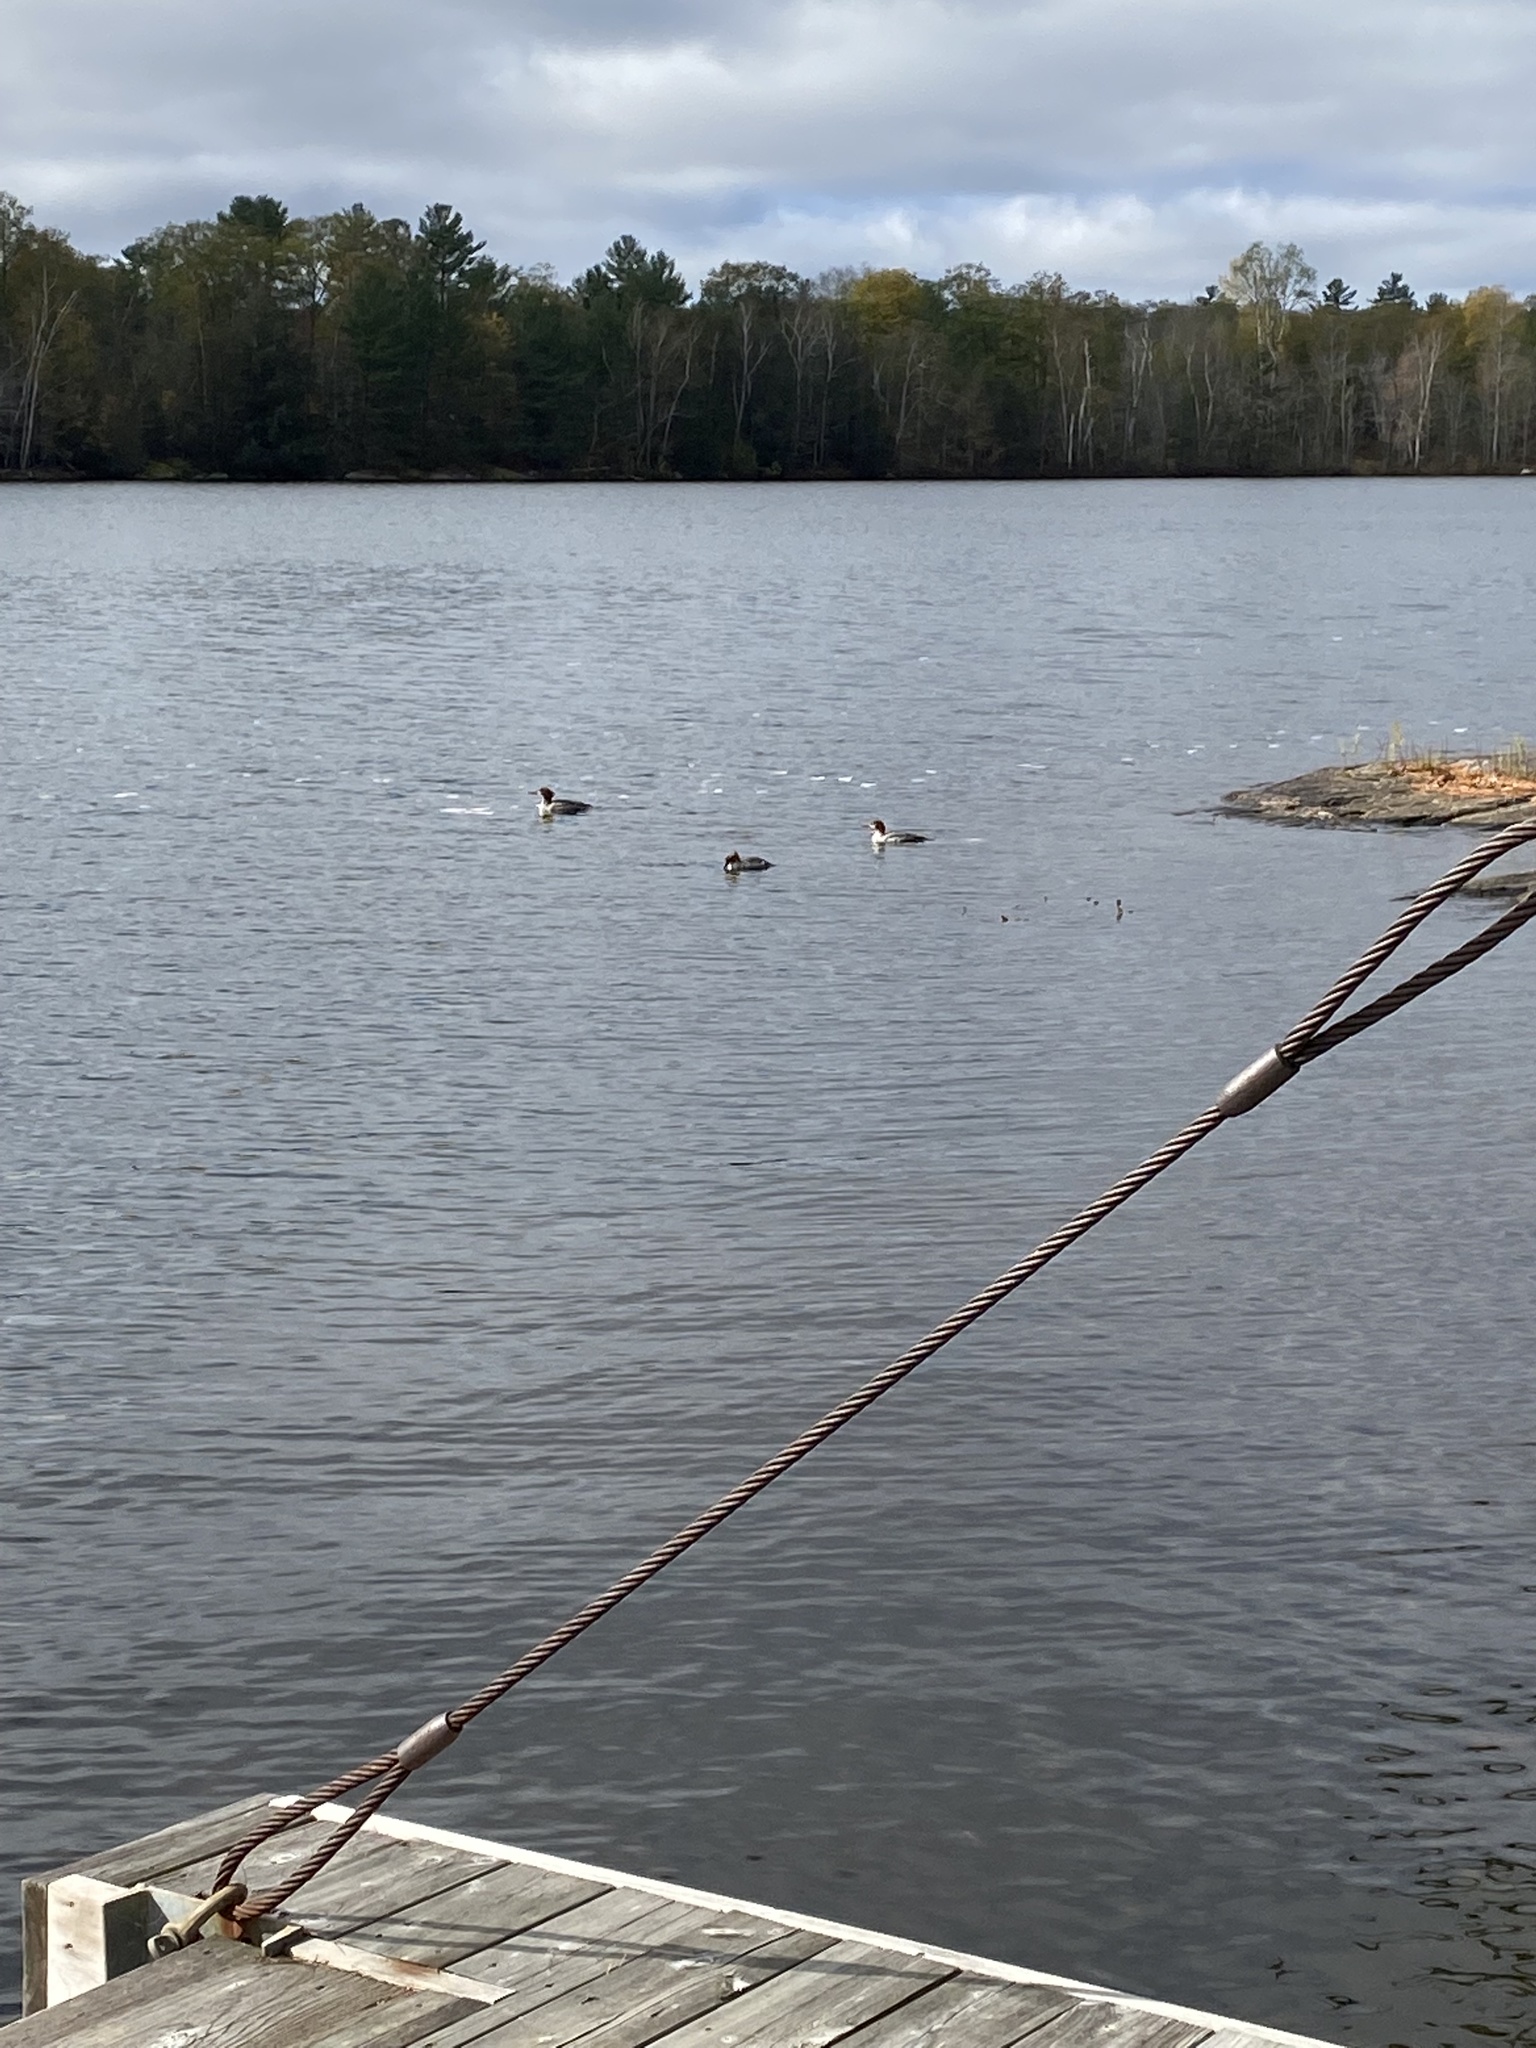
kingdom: Animalia
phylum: Chordata
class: Aves
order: Anseriformes
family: Anatidae
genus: Mergus
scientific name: Mergus merganser
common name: Common merganser
